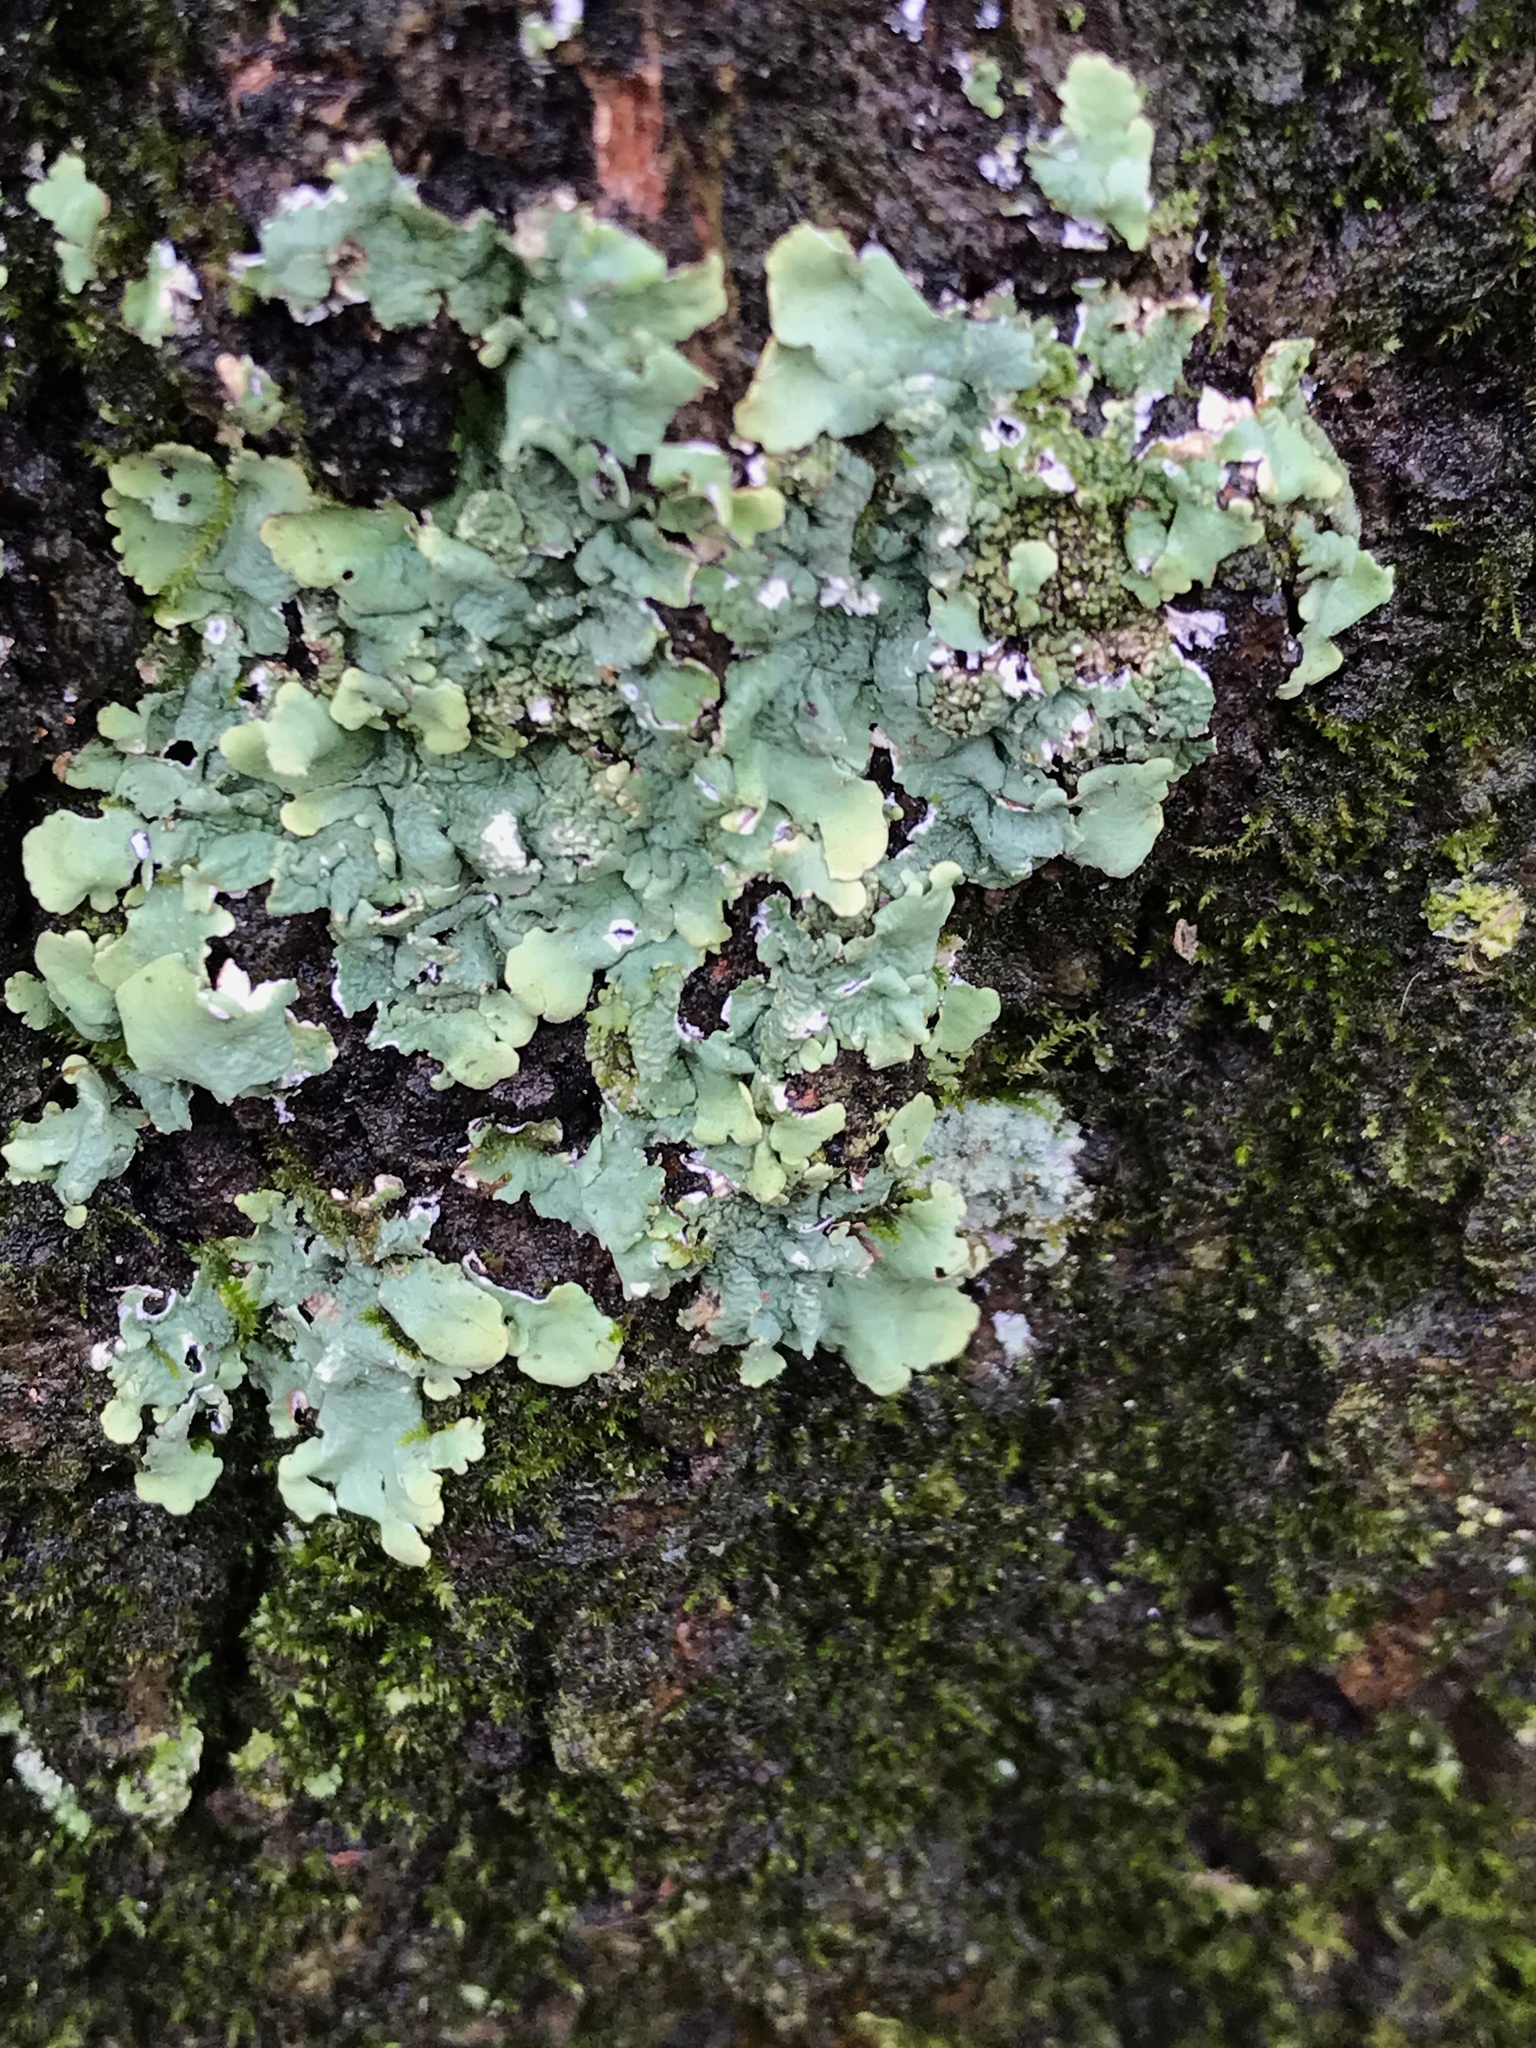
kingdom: Fungi
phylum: Ascomycota
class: Lecanoromycetes
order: Lecanorales
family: Parmeliaceae
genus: Flavoparmelia
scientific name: Flavoparmelia caperata
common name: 40-mile per hour lichen
